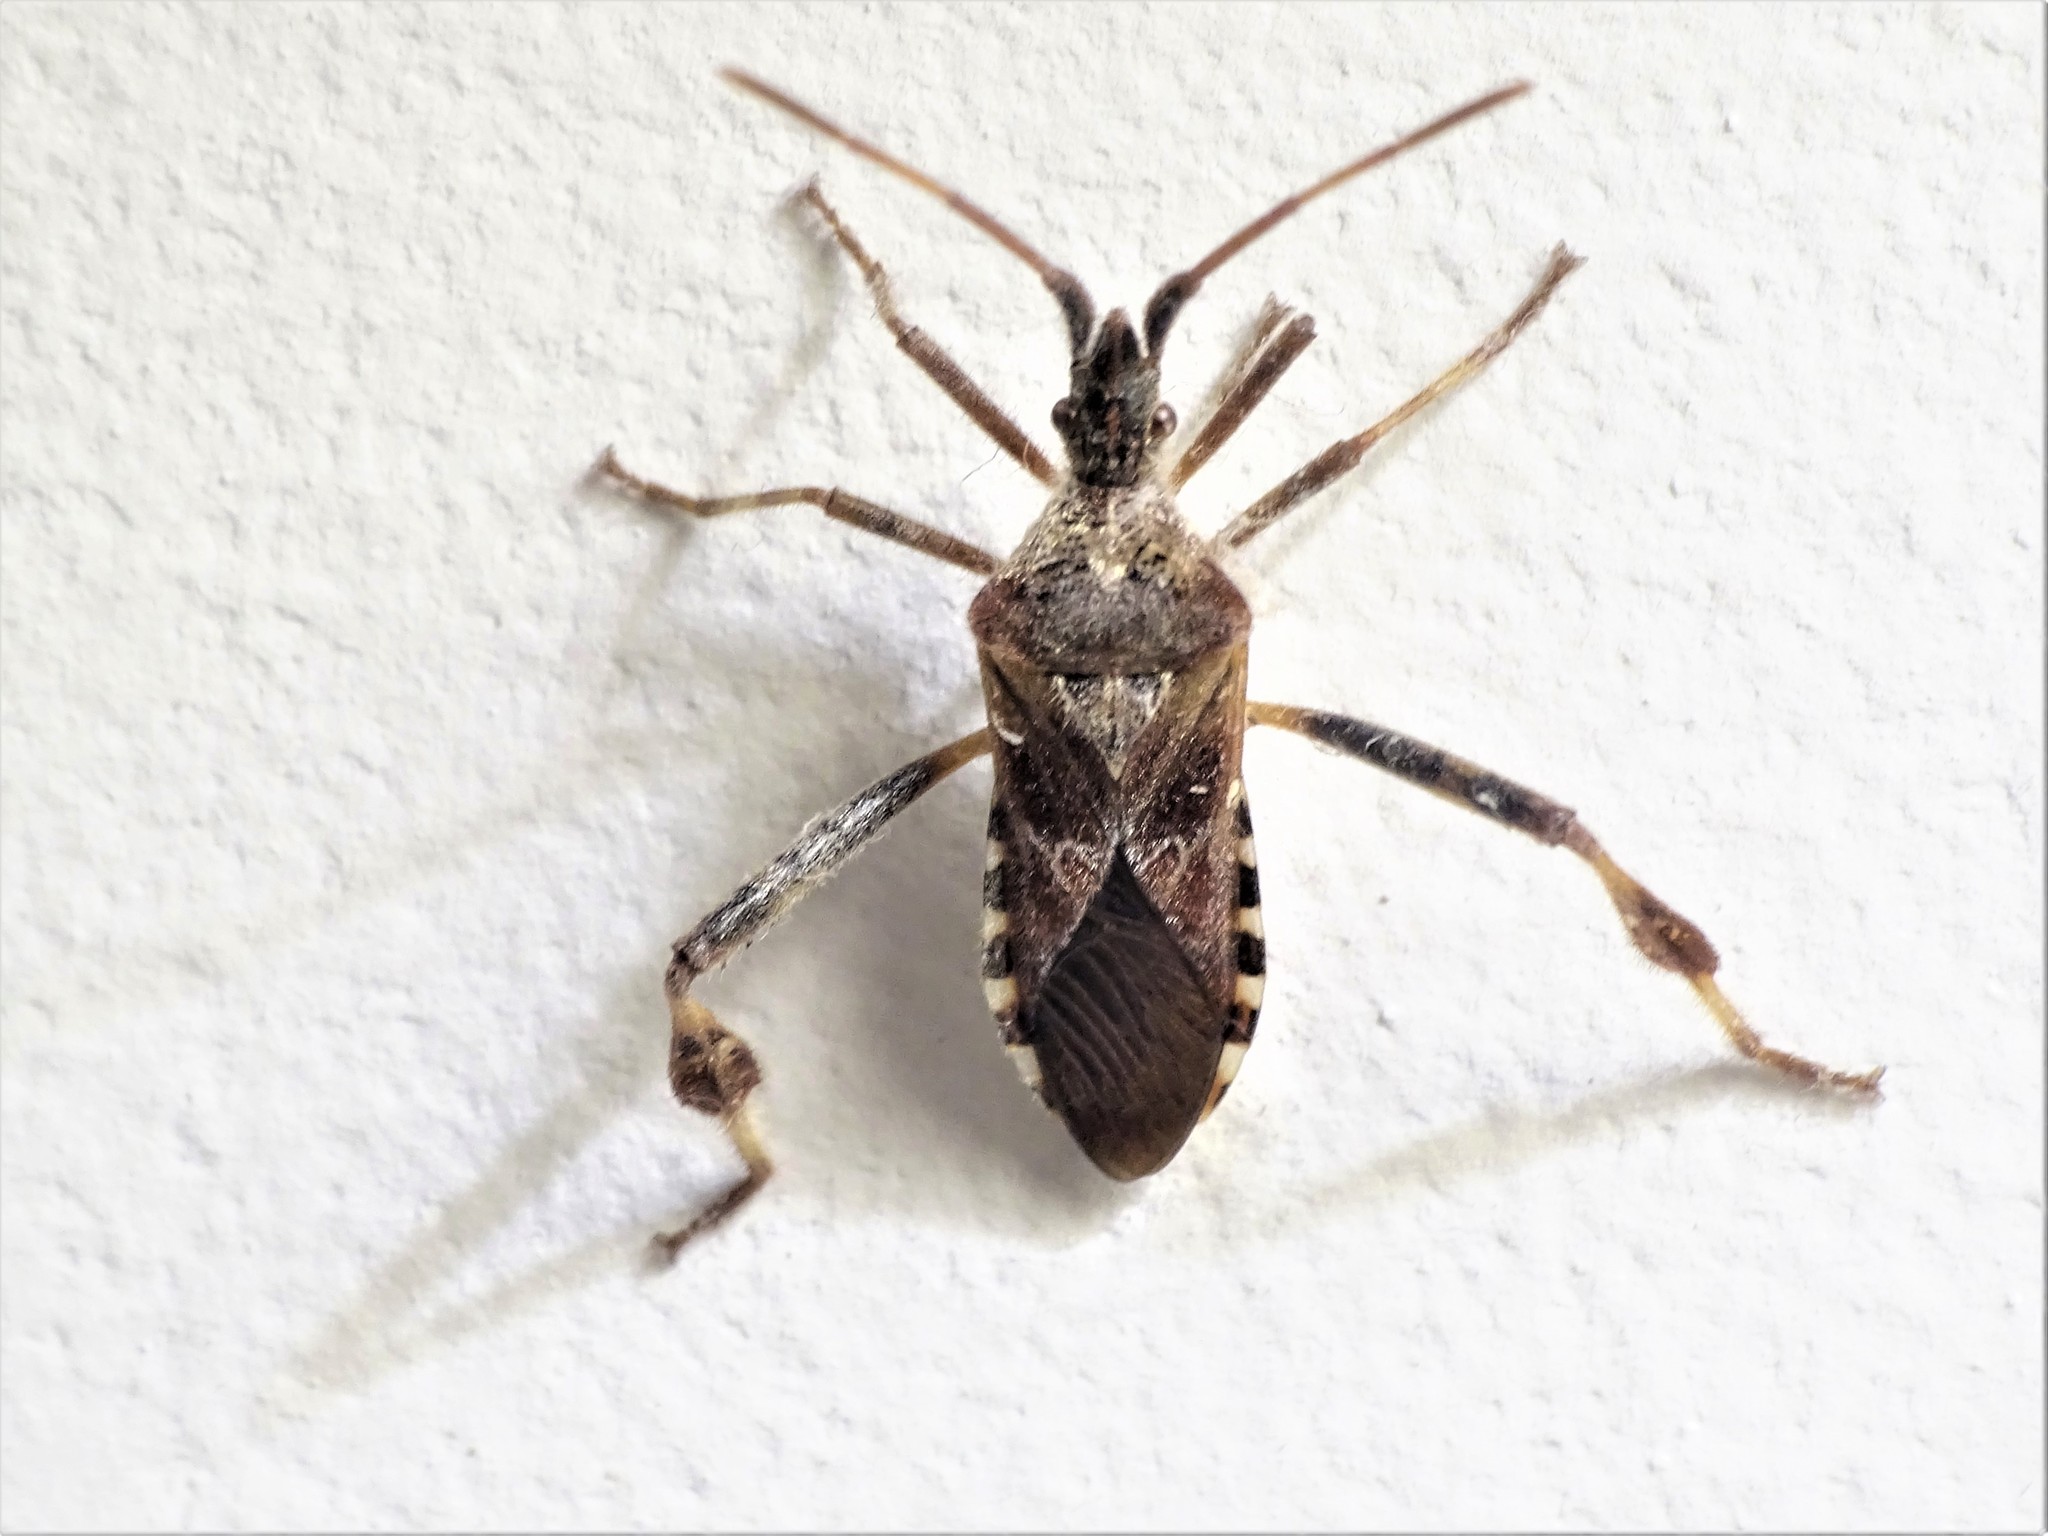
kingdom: Animalia
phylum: Arthropoda
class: Insecta
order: Hemiptera
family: Coreidae
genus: Leptoglossus
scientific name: Leptoglossus occidentalis
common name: Western conifer-seed bug
